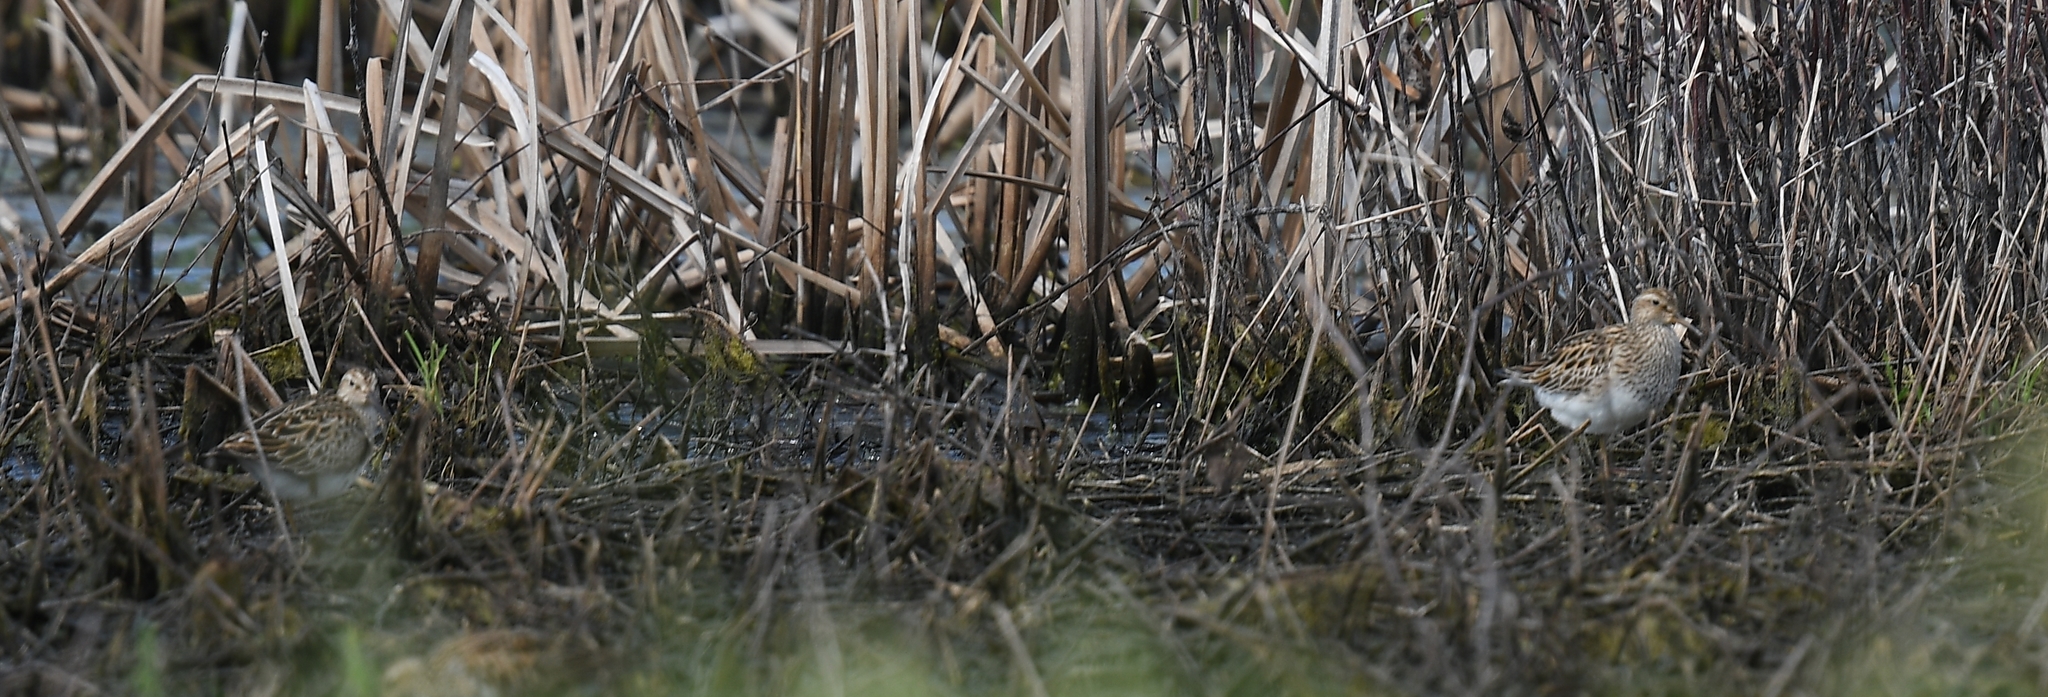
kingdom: Animalia
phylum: Chordata
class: Aves
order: Charadriiformes
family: Scolopacidae
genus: Calidris
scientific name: Calidris melanotos
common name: Pectoral sandpiper
